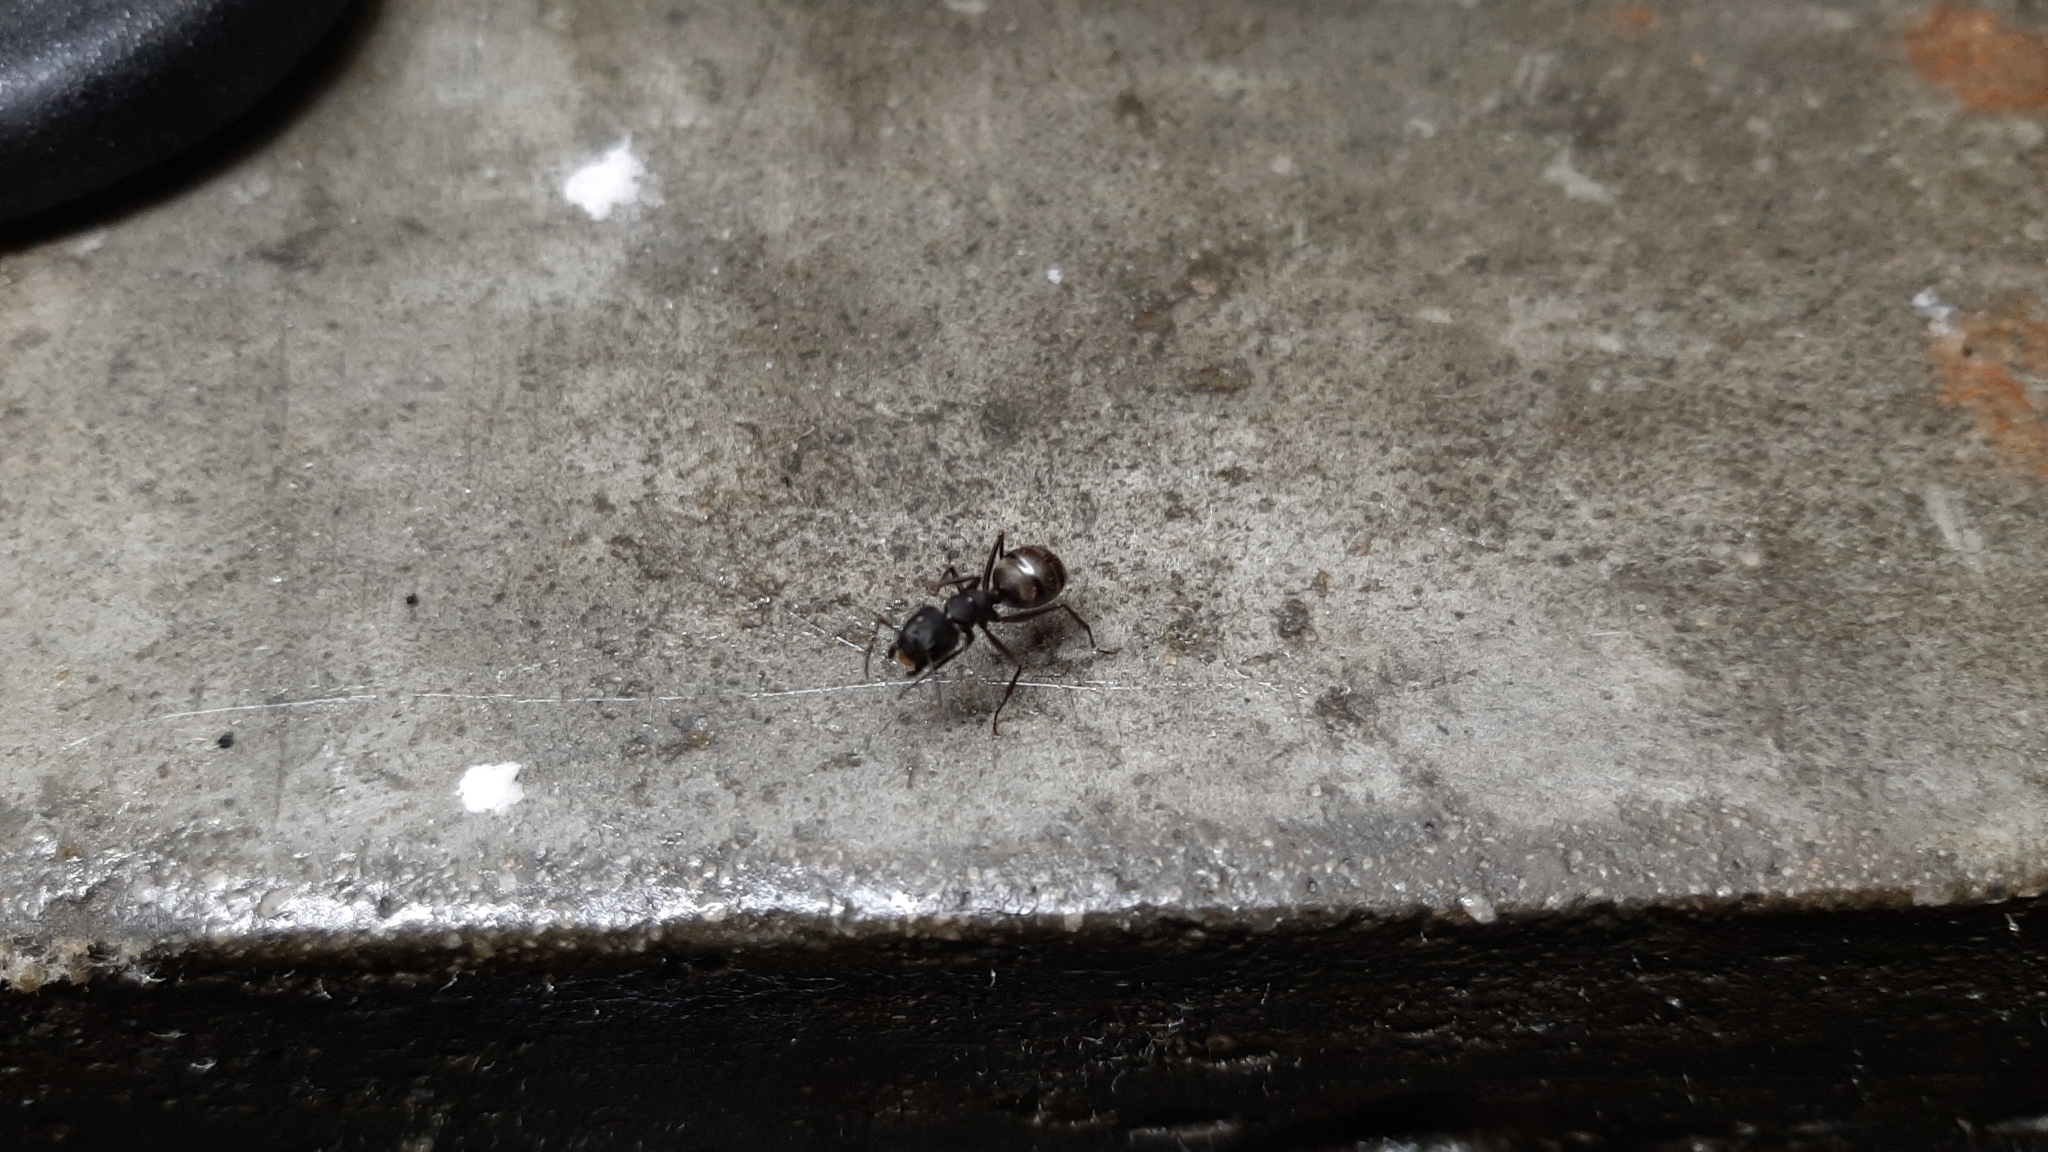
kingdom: Animalia
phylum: Arthropoda
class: Insecta
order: Hymenoptera
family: Formicidae
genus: Camponotus
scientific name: Camponotus pennsylvanicus
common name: Black carpenter ant
